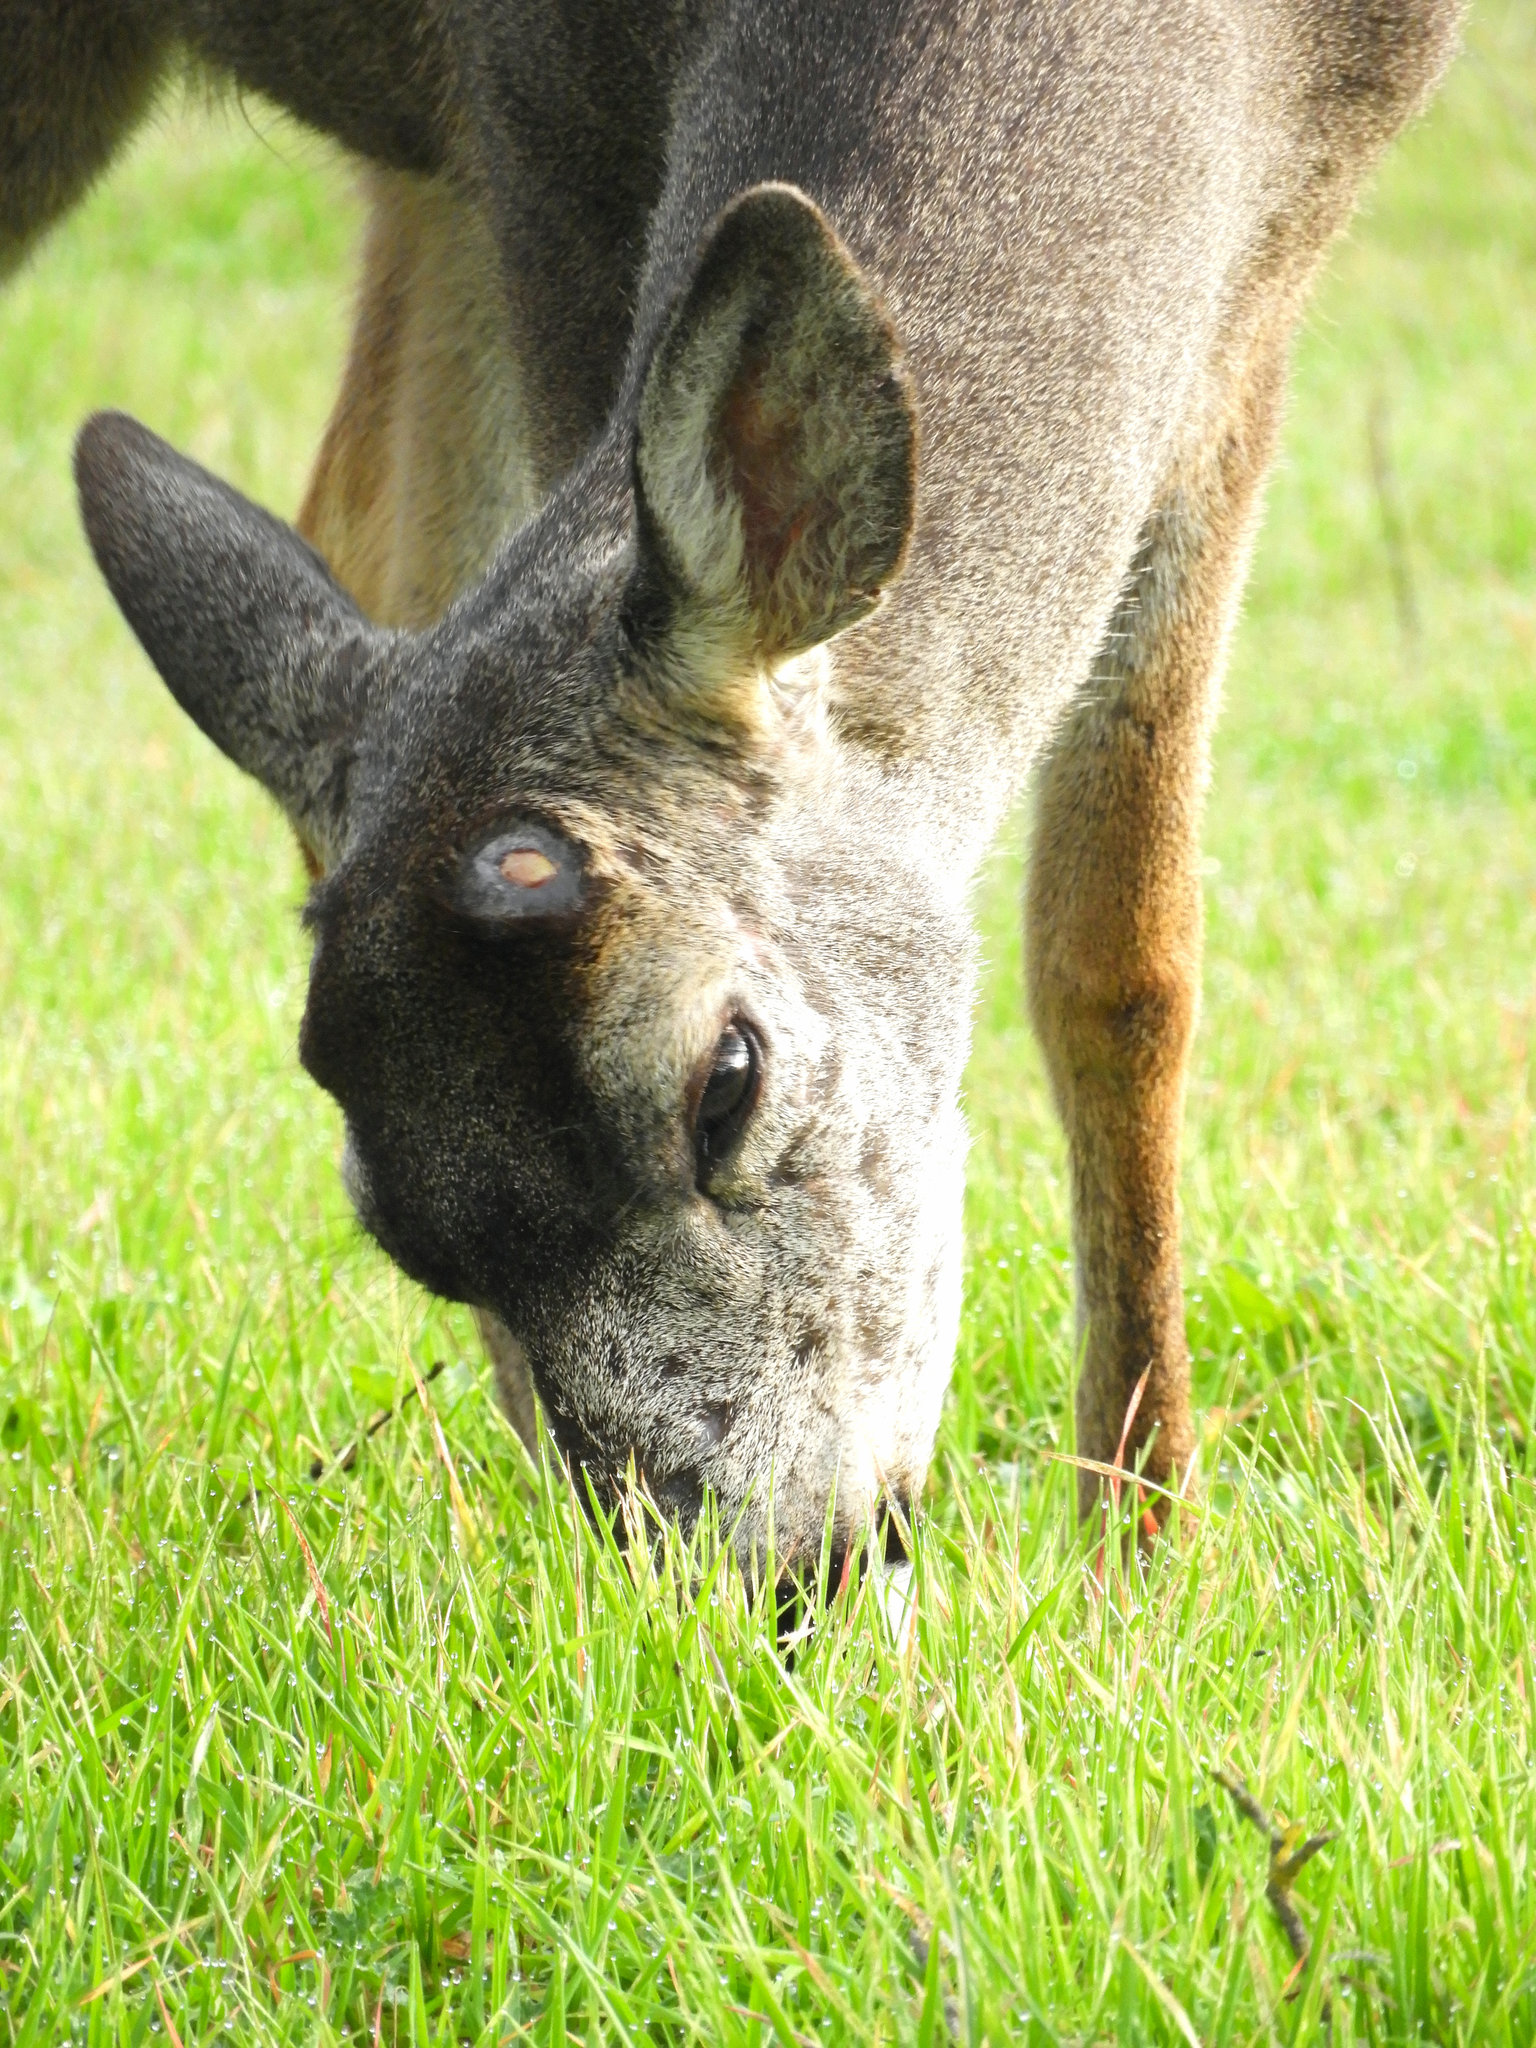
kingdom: Animalia
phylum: Chordata
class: Mammalia
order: Artiodactyla
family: Cervidae
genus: Odocoileus
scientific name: Odocoileus hemionus
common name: Mule deer
